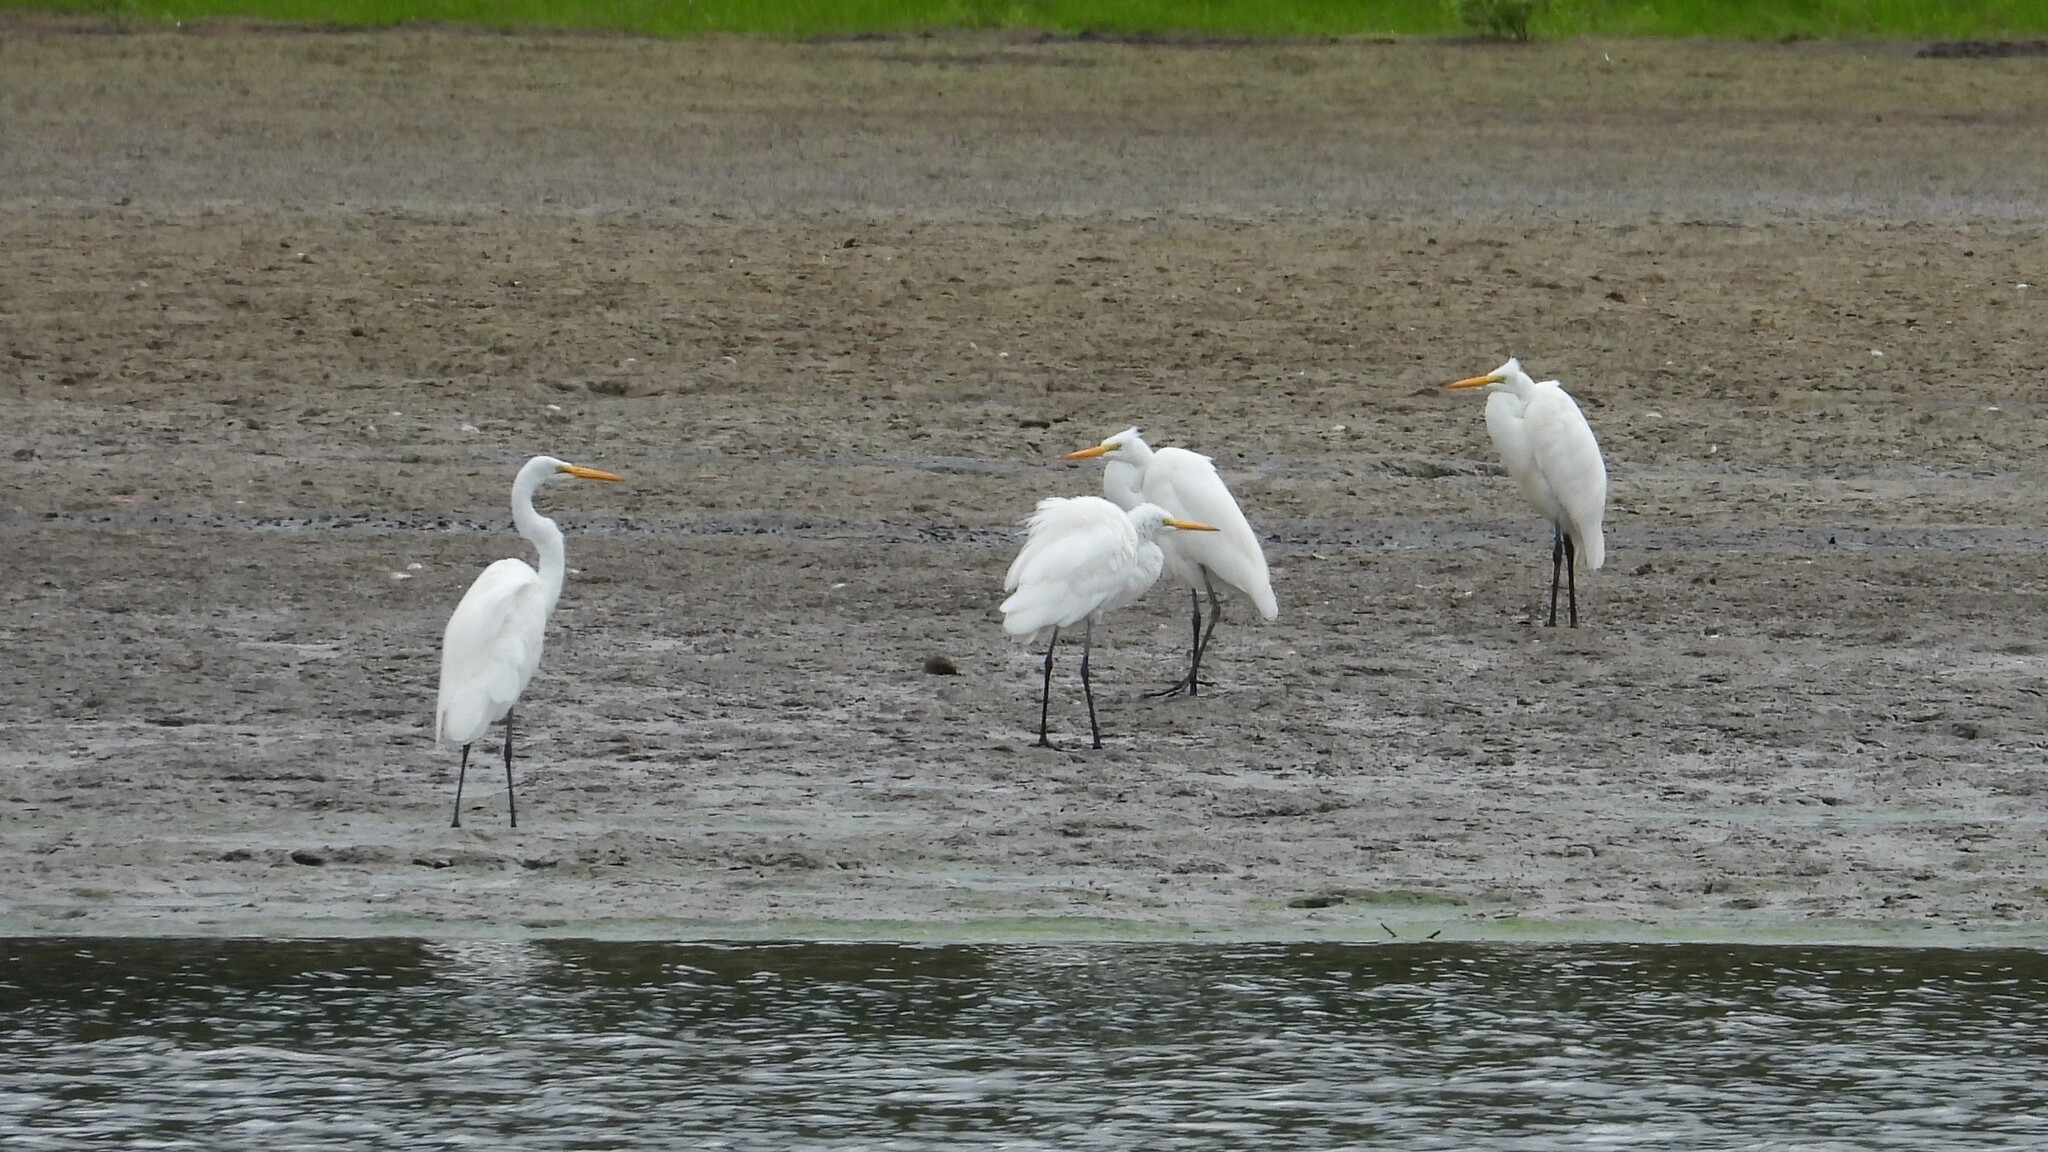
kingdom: Animalia
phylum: Chordata
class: Aves
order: Pelecaniformes
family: Ardeidae
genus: Ardea
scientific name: Ardea alba
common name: Great egret
